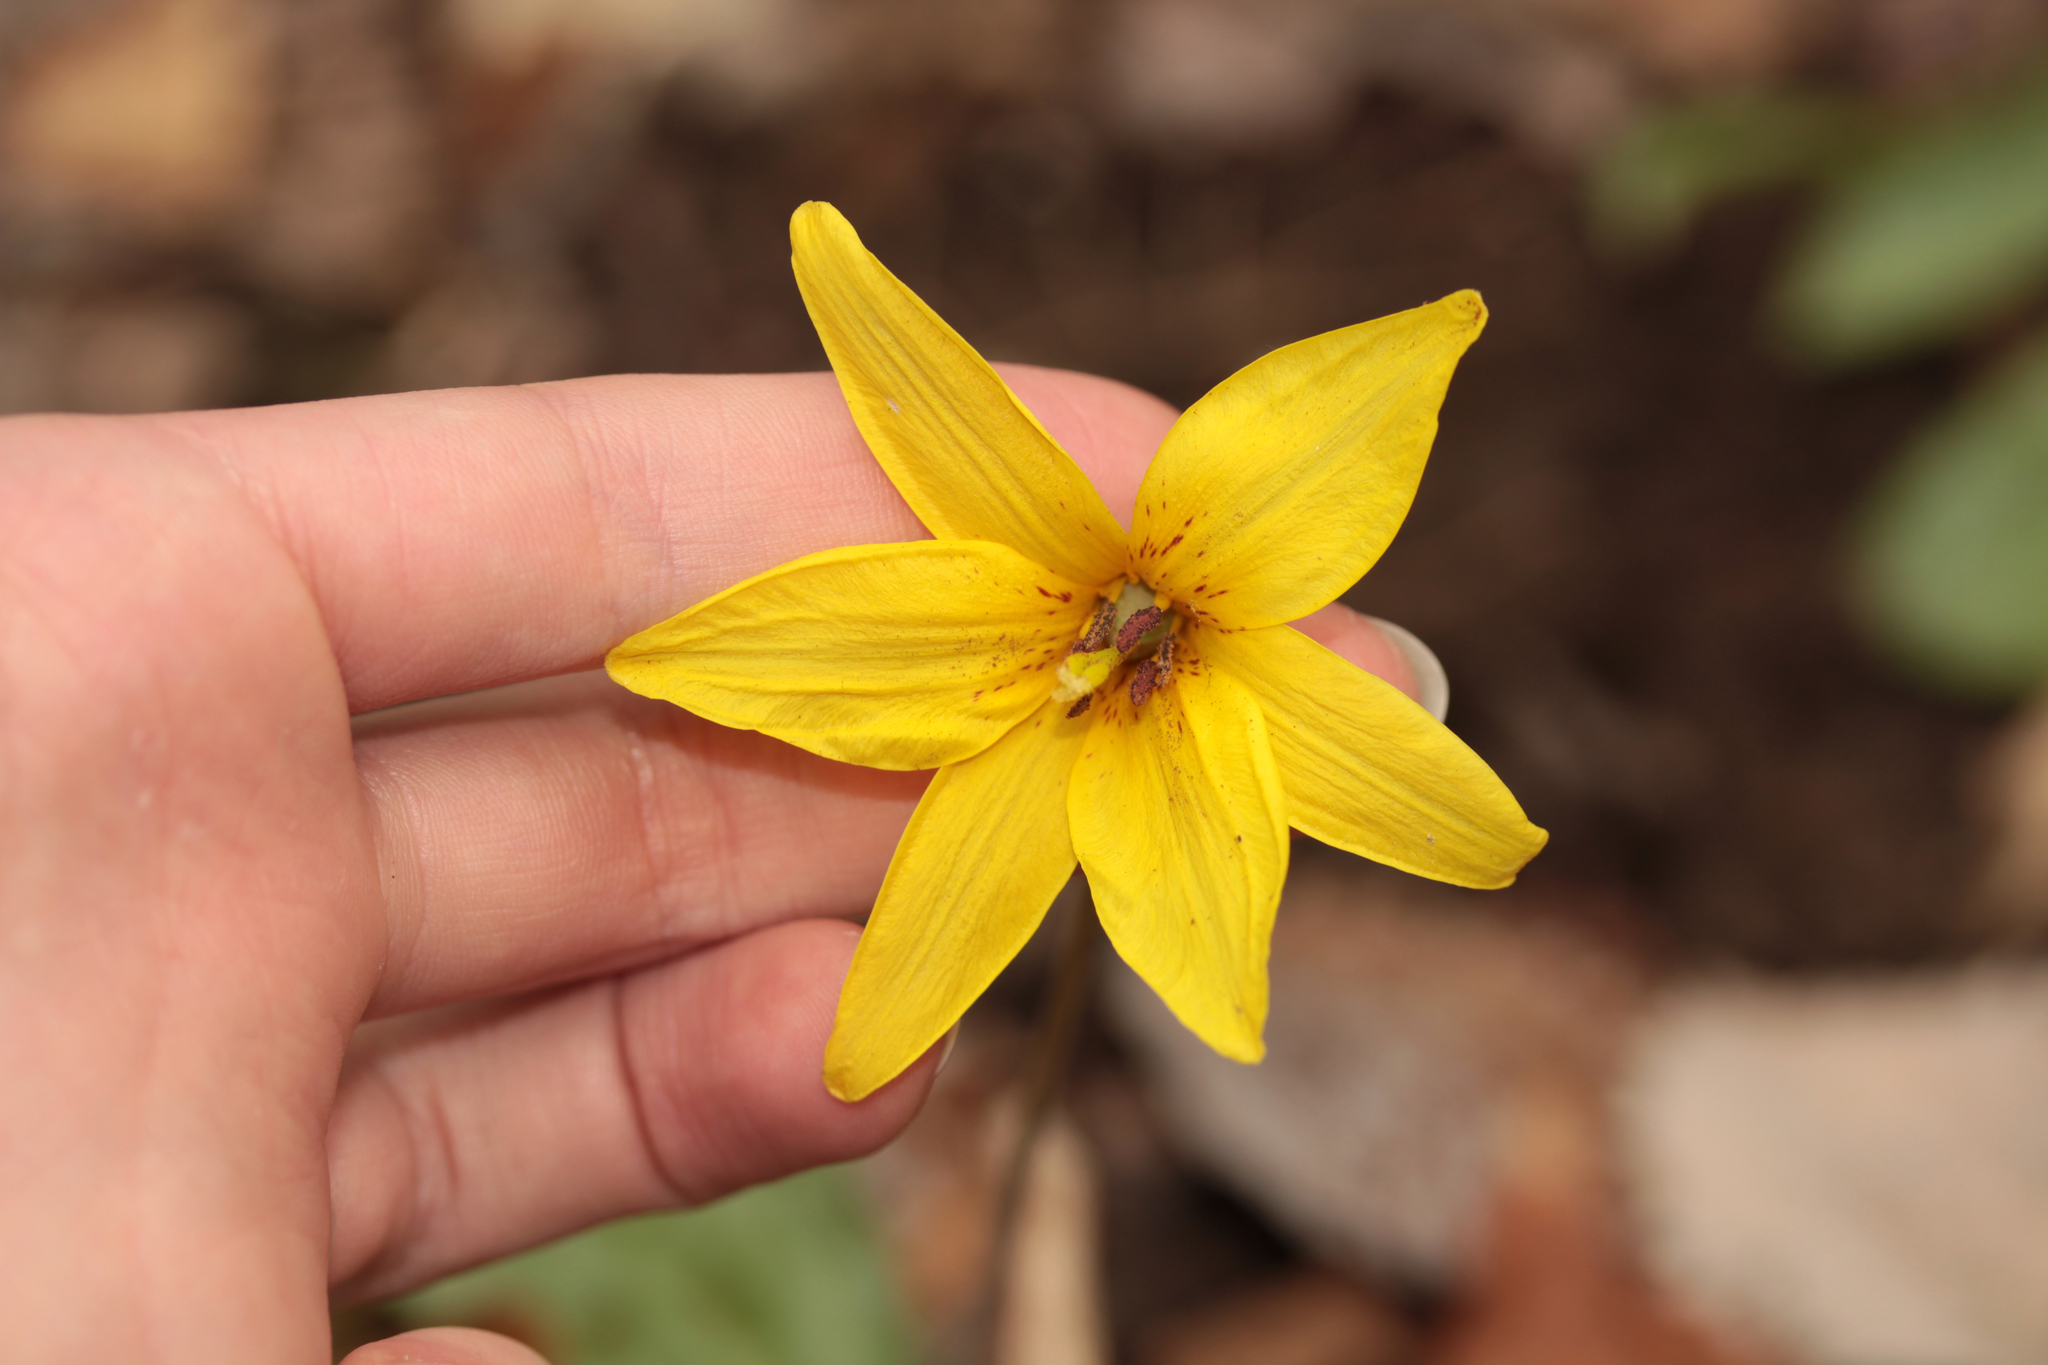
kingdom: Plantae
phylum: Tracheophyta
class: Liliopsida
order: Liliales
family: Liliaceae
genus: Erythronium
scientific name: Erythronium americanum
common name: Yellow adder's-tongue
